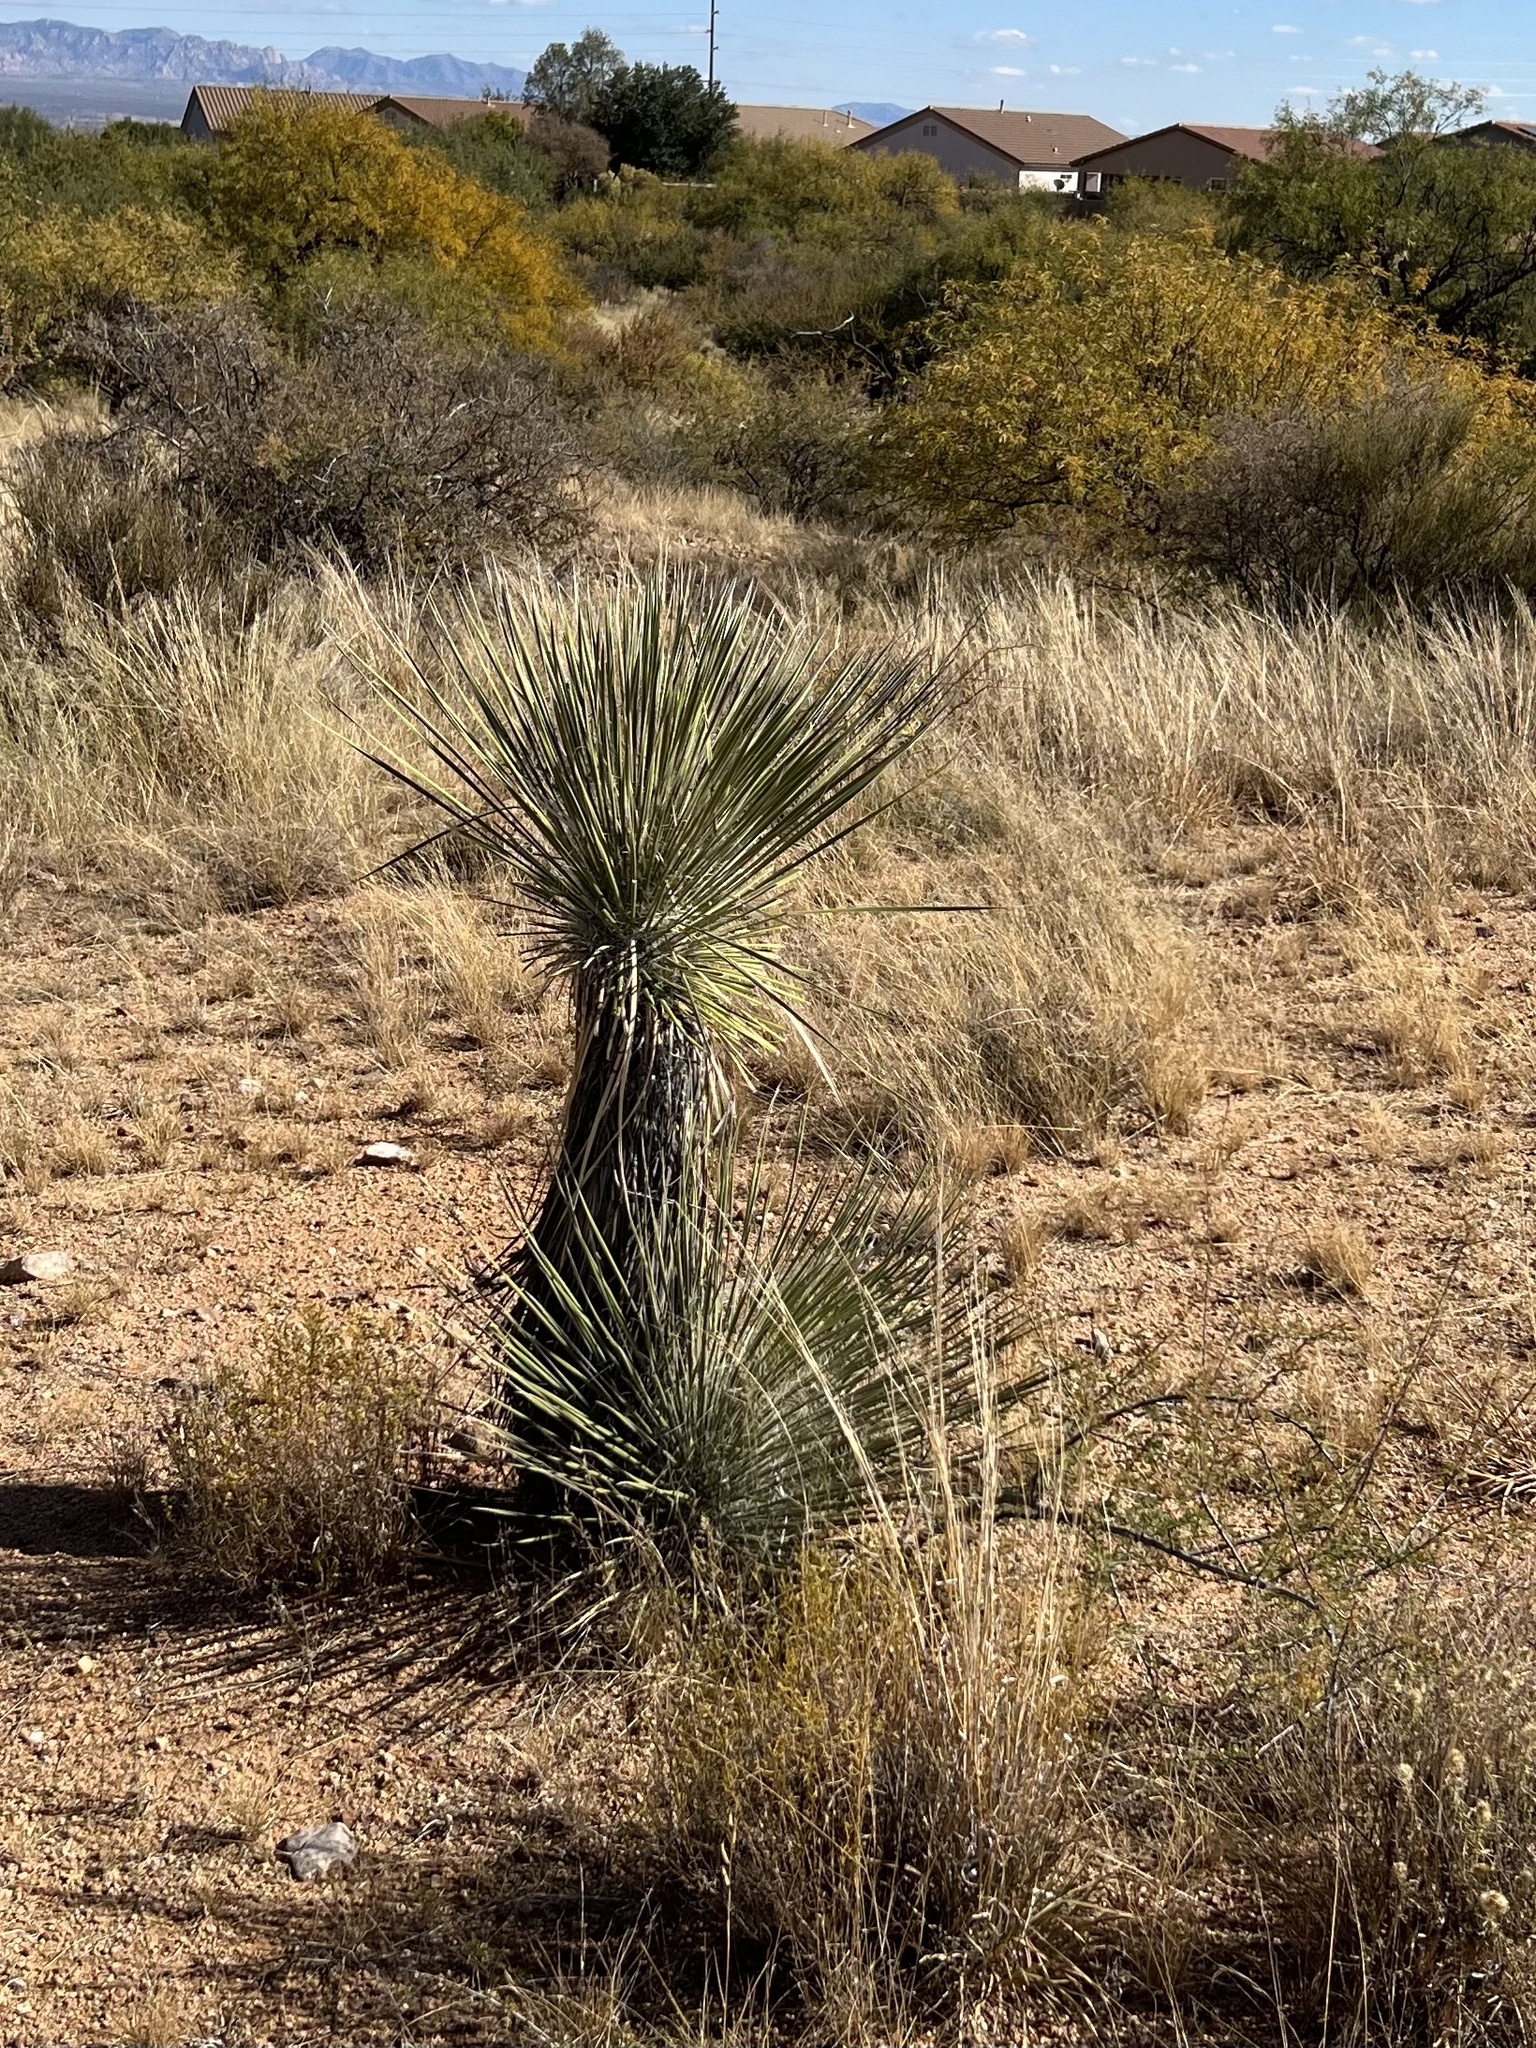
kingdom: Plantae
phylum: Tracheophyta
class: Liliopsida
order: Asparagales
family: Asparagaceae
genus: Yucca
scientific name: Yucca elata
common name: Palmella
